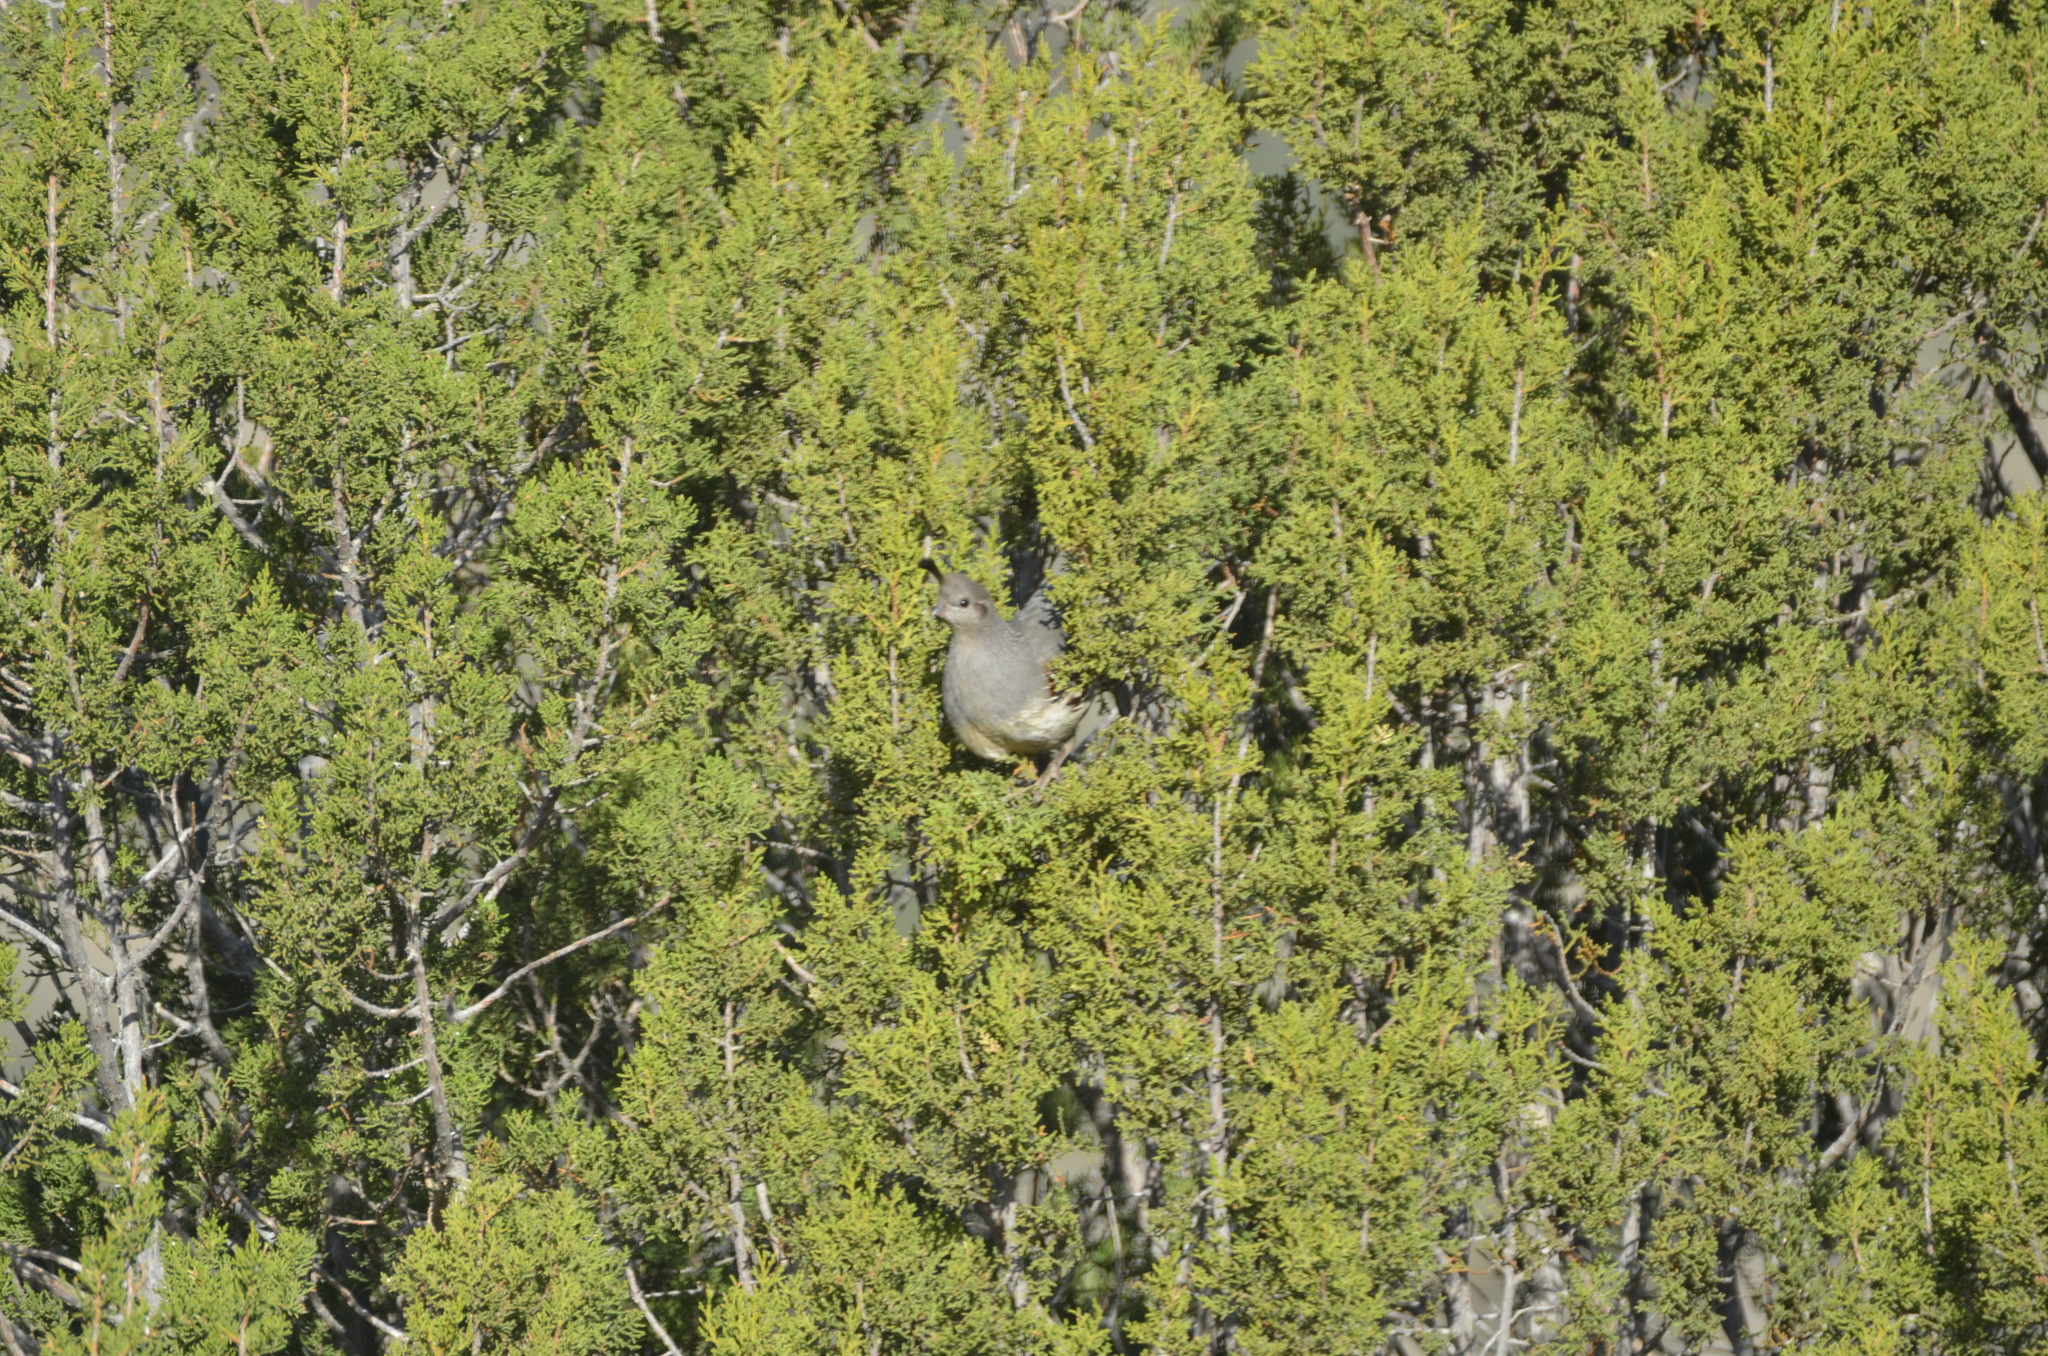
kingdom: Animalia
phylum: Chordata
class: Aves
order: Galliformes
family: Odontophoridae
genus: Callipepla
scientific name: Callipepla gambelii
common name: Gambel's quail
